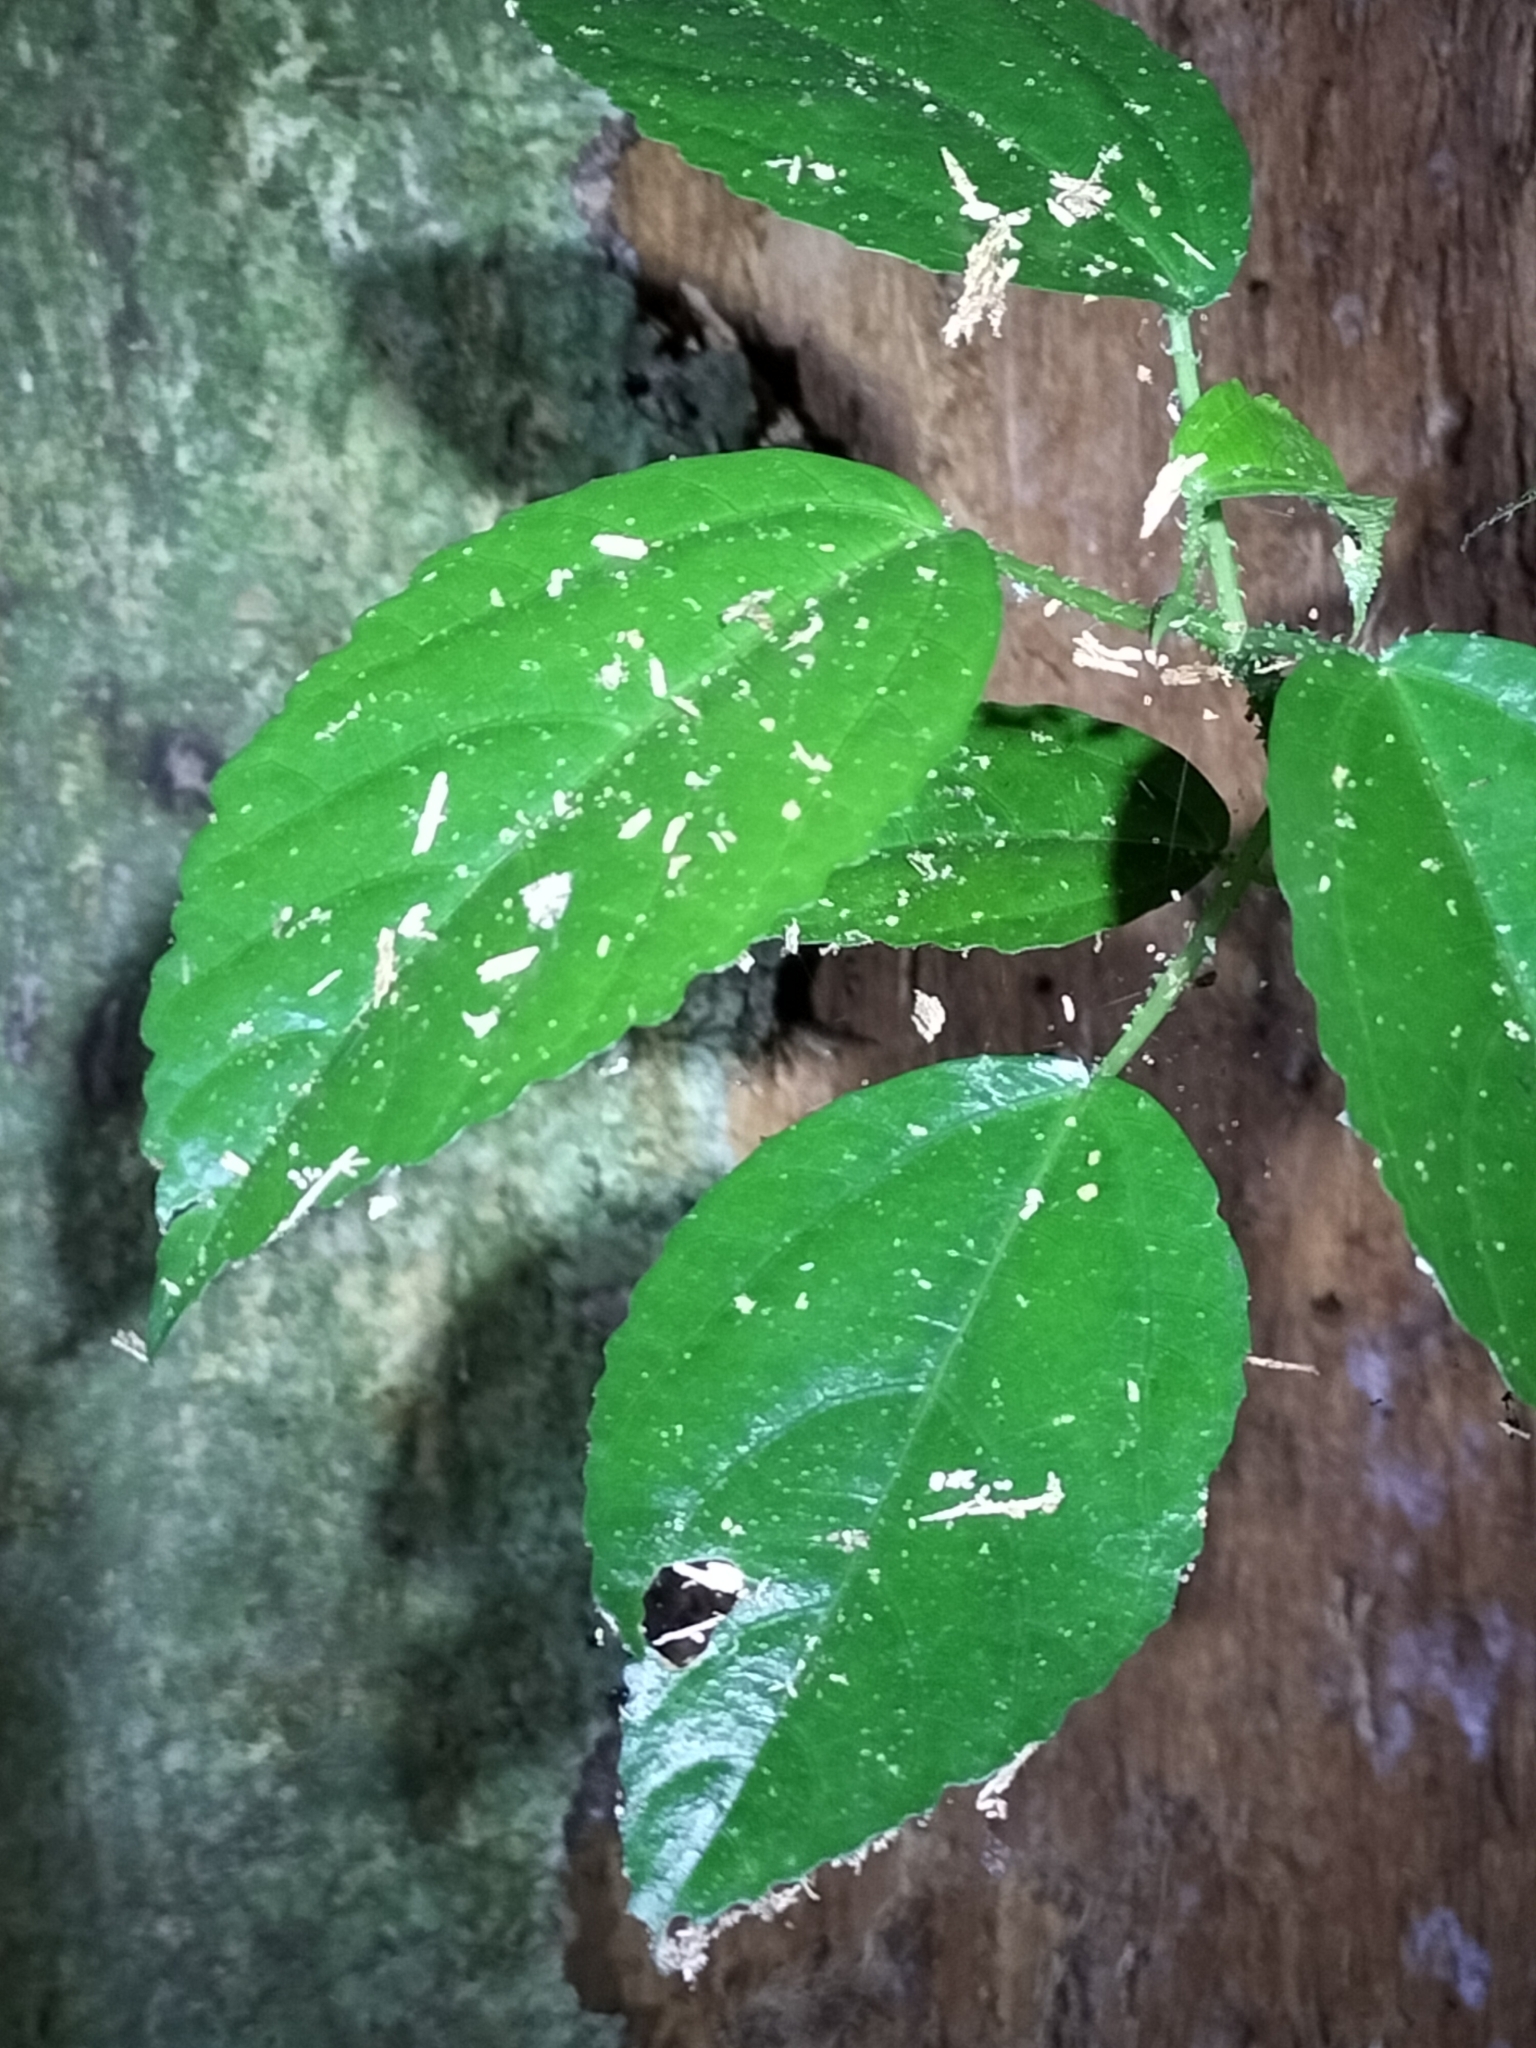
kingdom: Plantae
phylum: Tracheophyta
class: Magnoliopsida
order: Rosales
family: Urticaceae
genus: Dendrocnide
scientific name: Dendrocnide photiniphylla
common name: Shiny-leaved stinging tree
